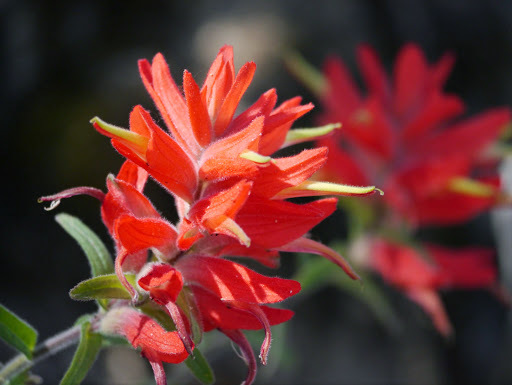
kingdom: Plantae
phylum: Tracheophyta
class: Magnoliopsida
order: Lamiales
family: Orobanchaceae
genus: Castilleja
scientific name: Castilleja miniata
